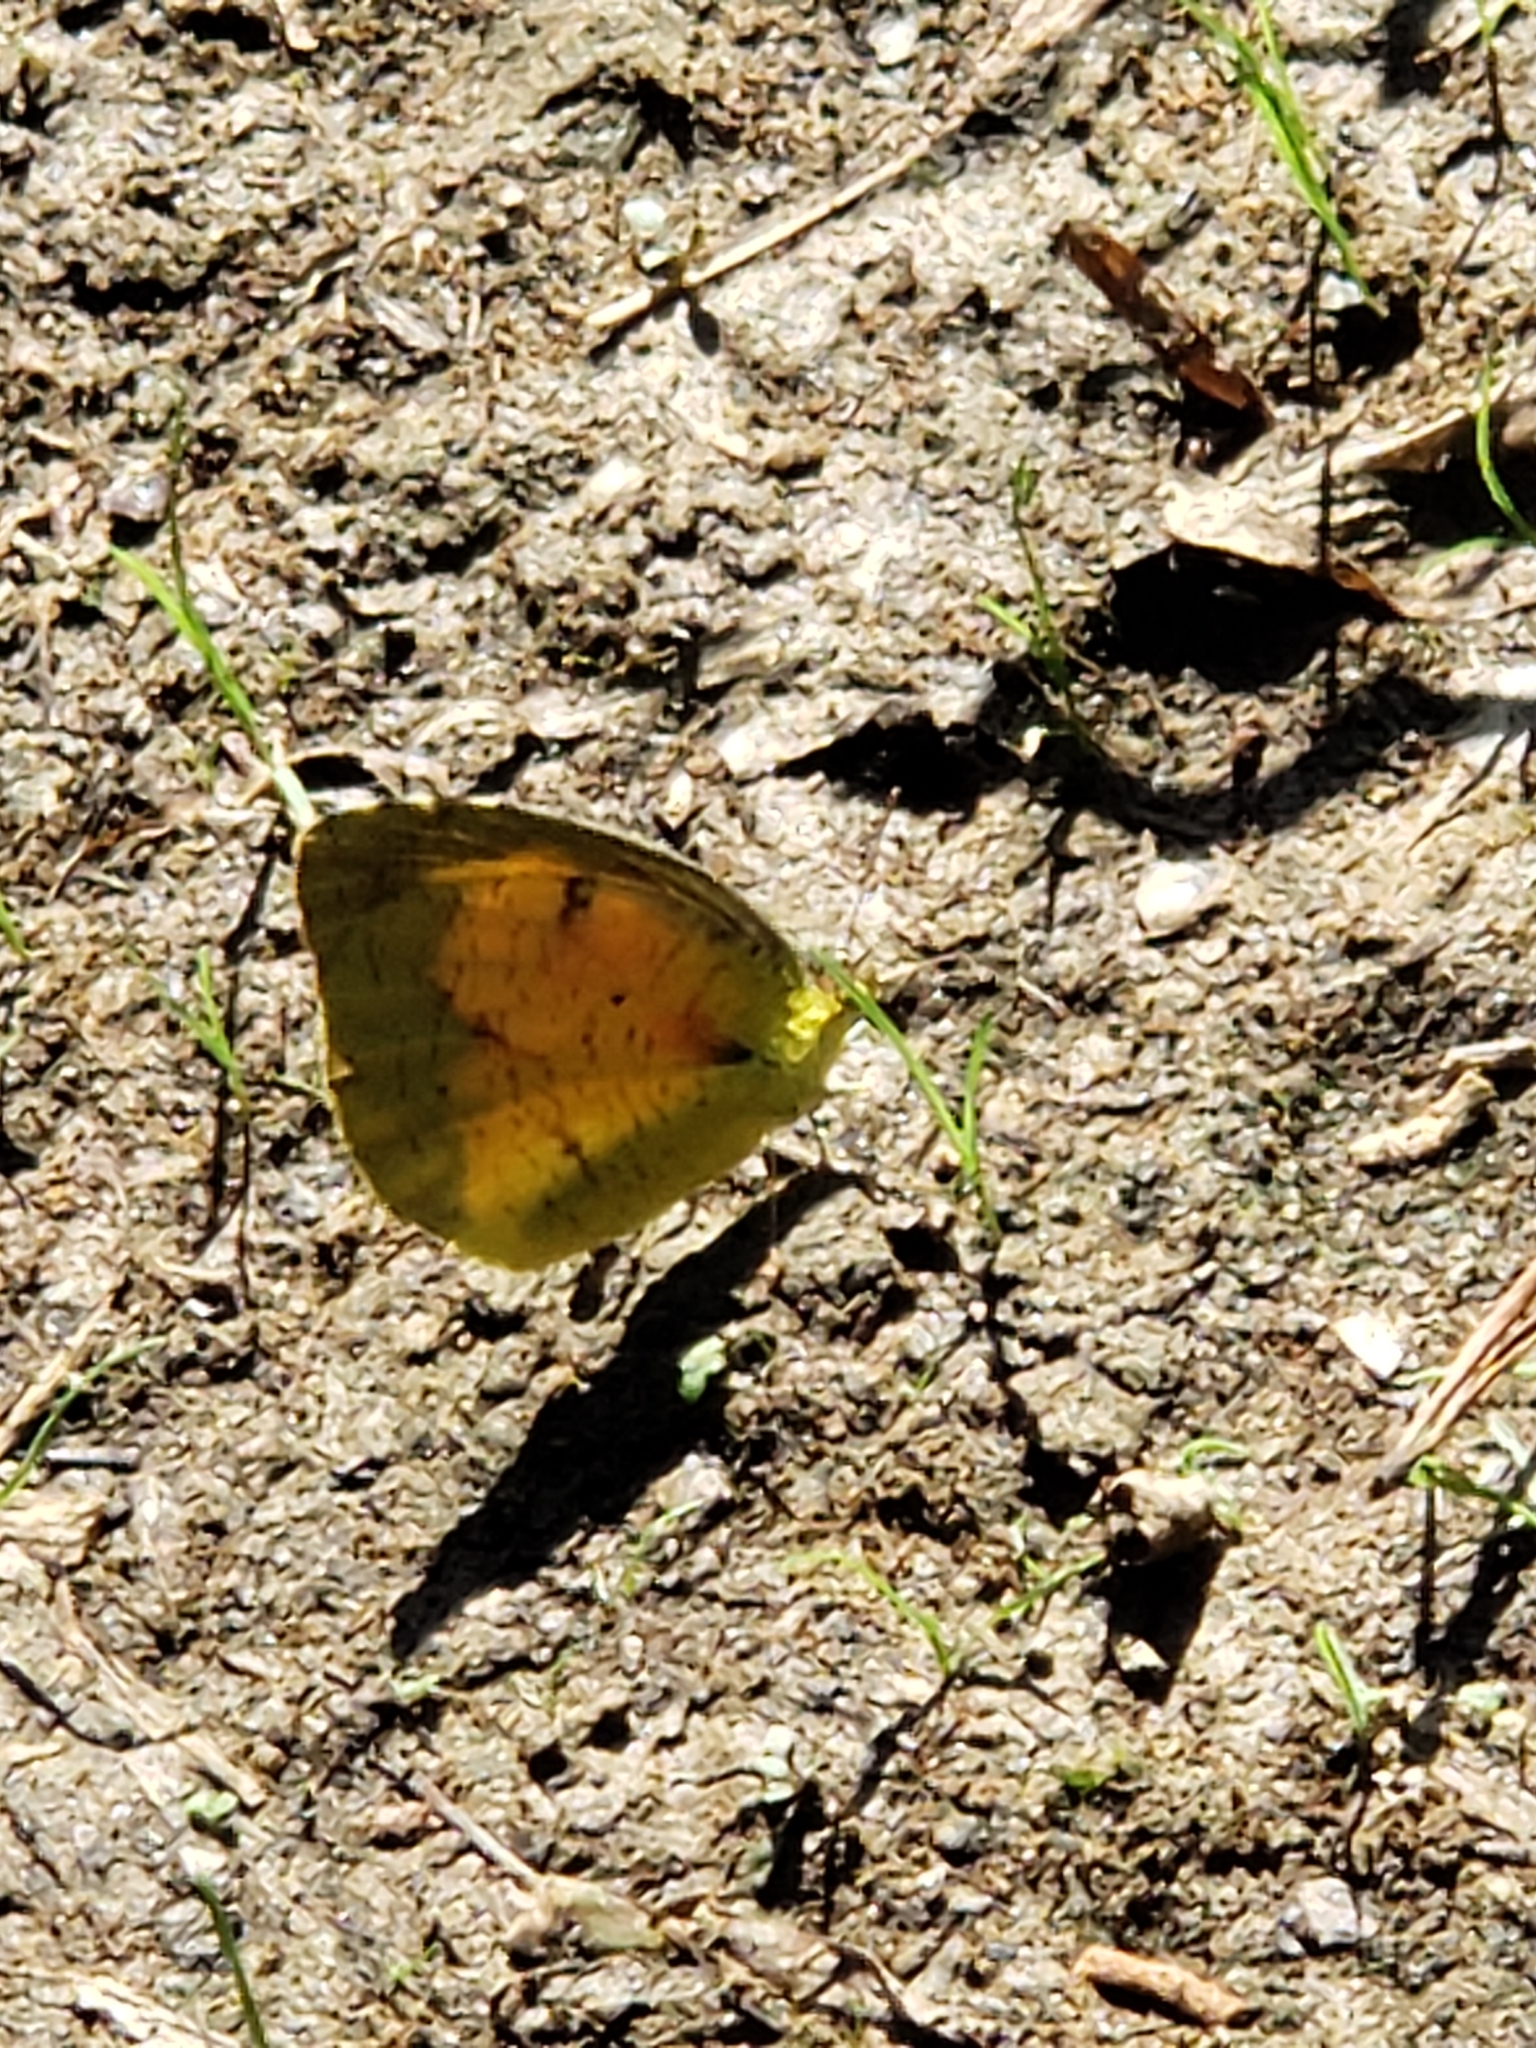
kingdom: Animalia
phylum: Arthropoda
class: Insecta
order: Lepidoptera
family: Pieridae
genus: Abaeis
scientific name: Abaeis nicippe
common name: Sleepy orange
